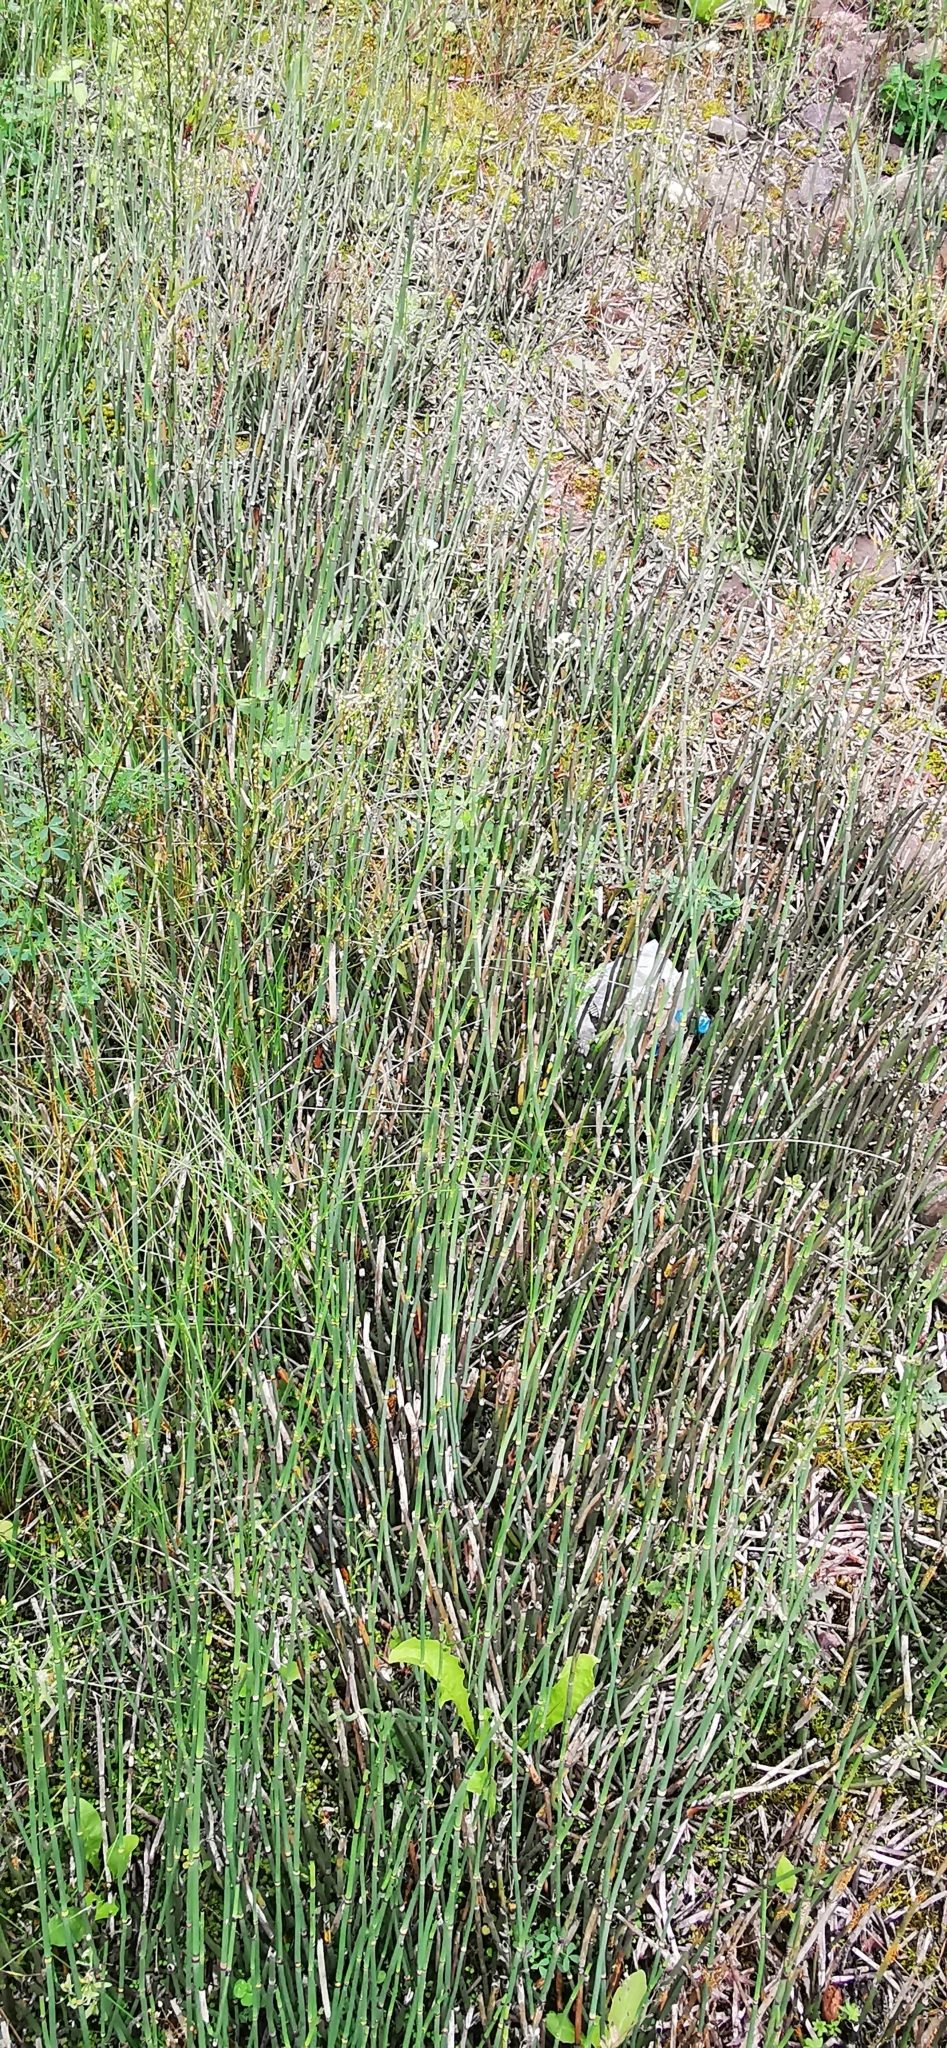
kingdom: Plantae
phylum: Tracheophyta
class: Polypodiopsida
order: Equisetales
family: Equisetaceae
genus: Equisetum
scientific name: Equisetum hyemale
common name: Rough horsetail
